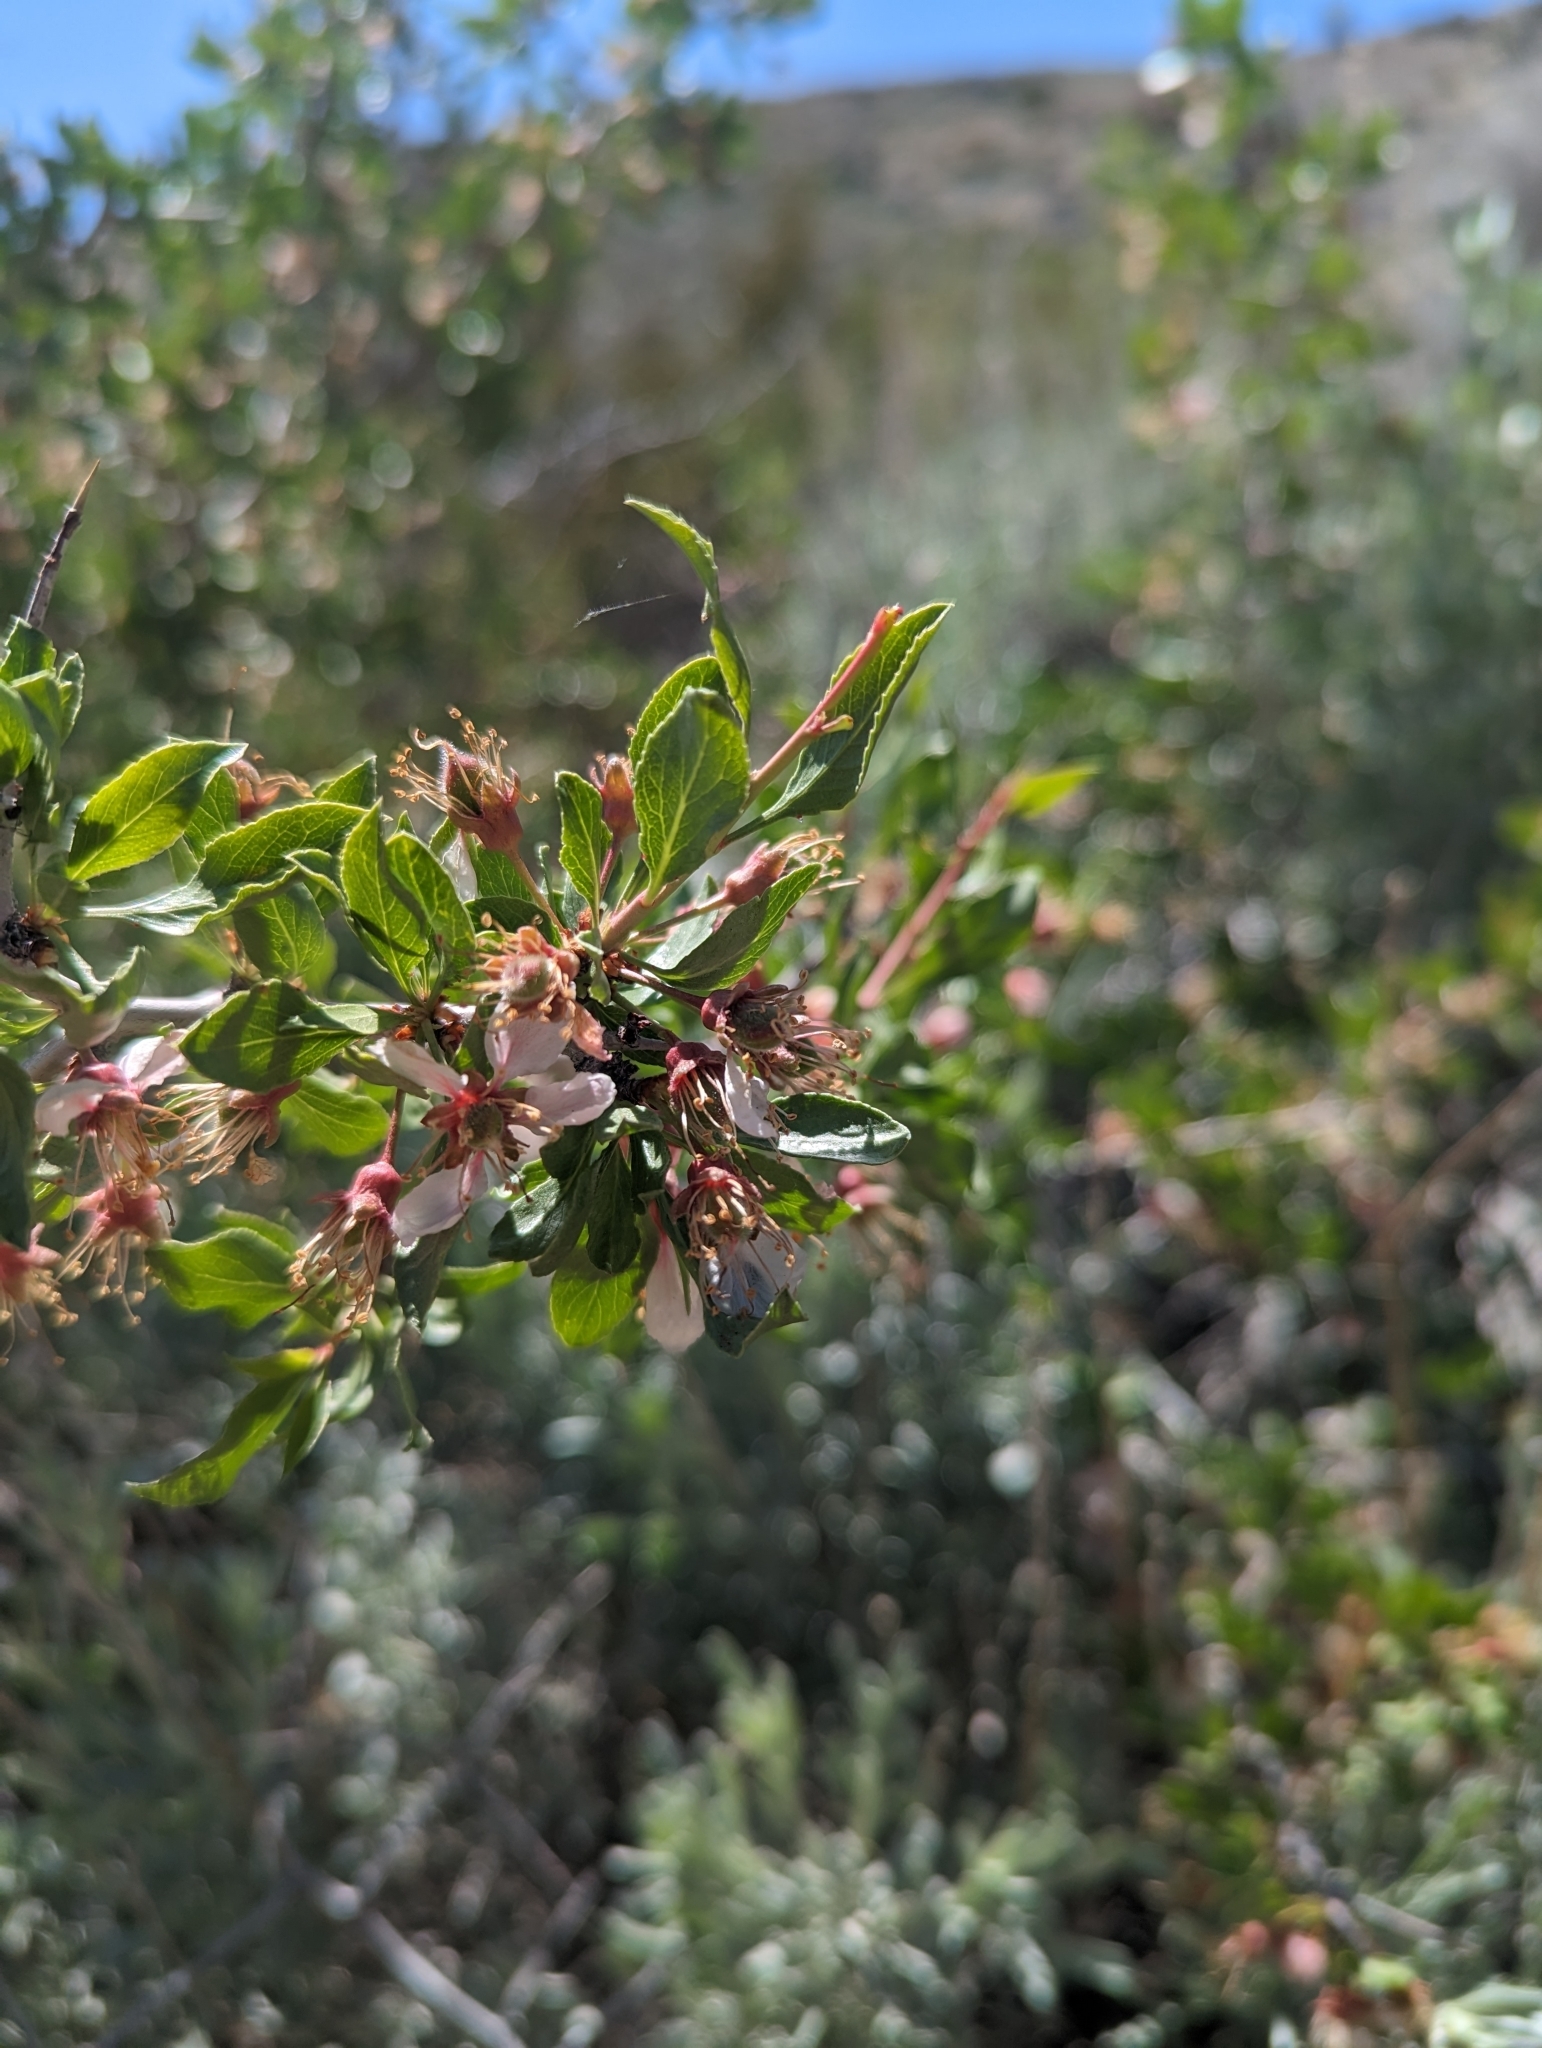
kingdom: Plantae
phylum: Tracheophyta
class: Magnoliopsida
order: Rosales
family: Rosaceae
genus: Prunus
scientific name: Prunus andersonii
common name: Desert peach
